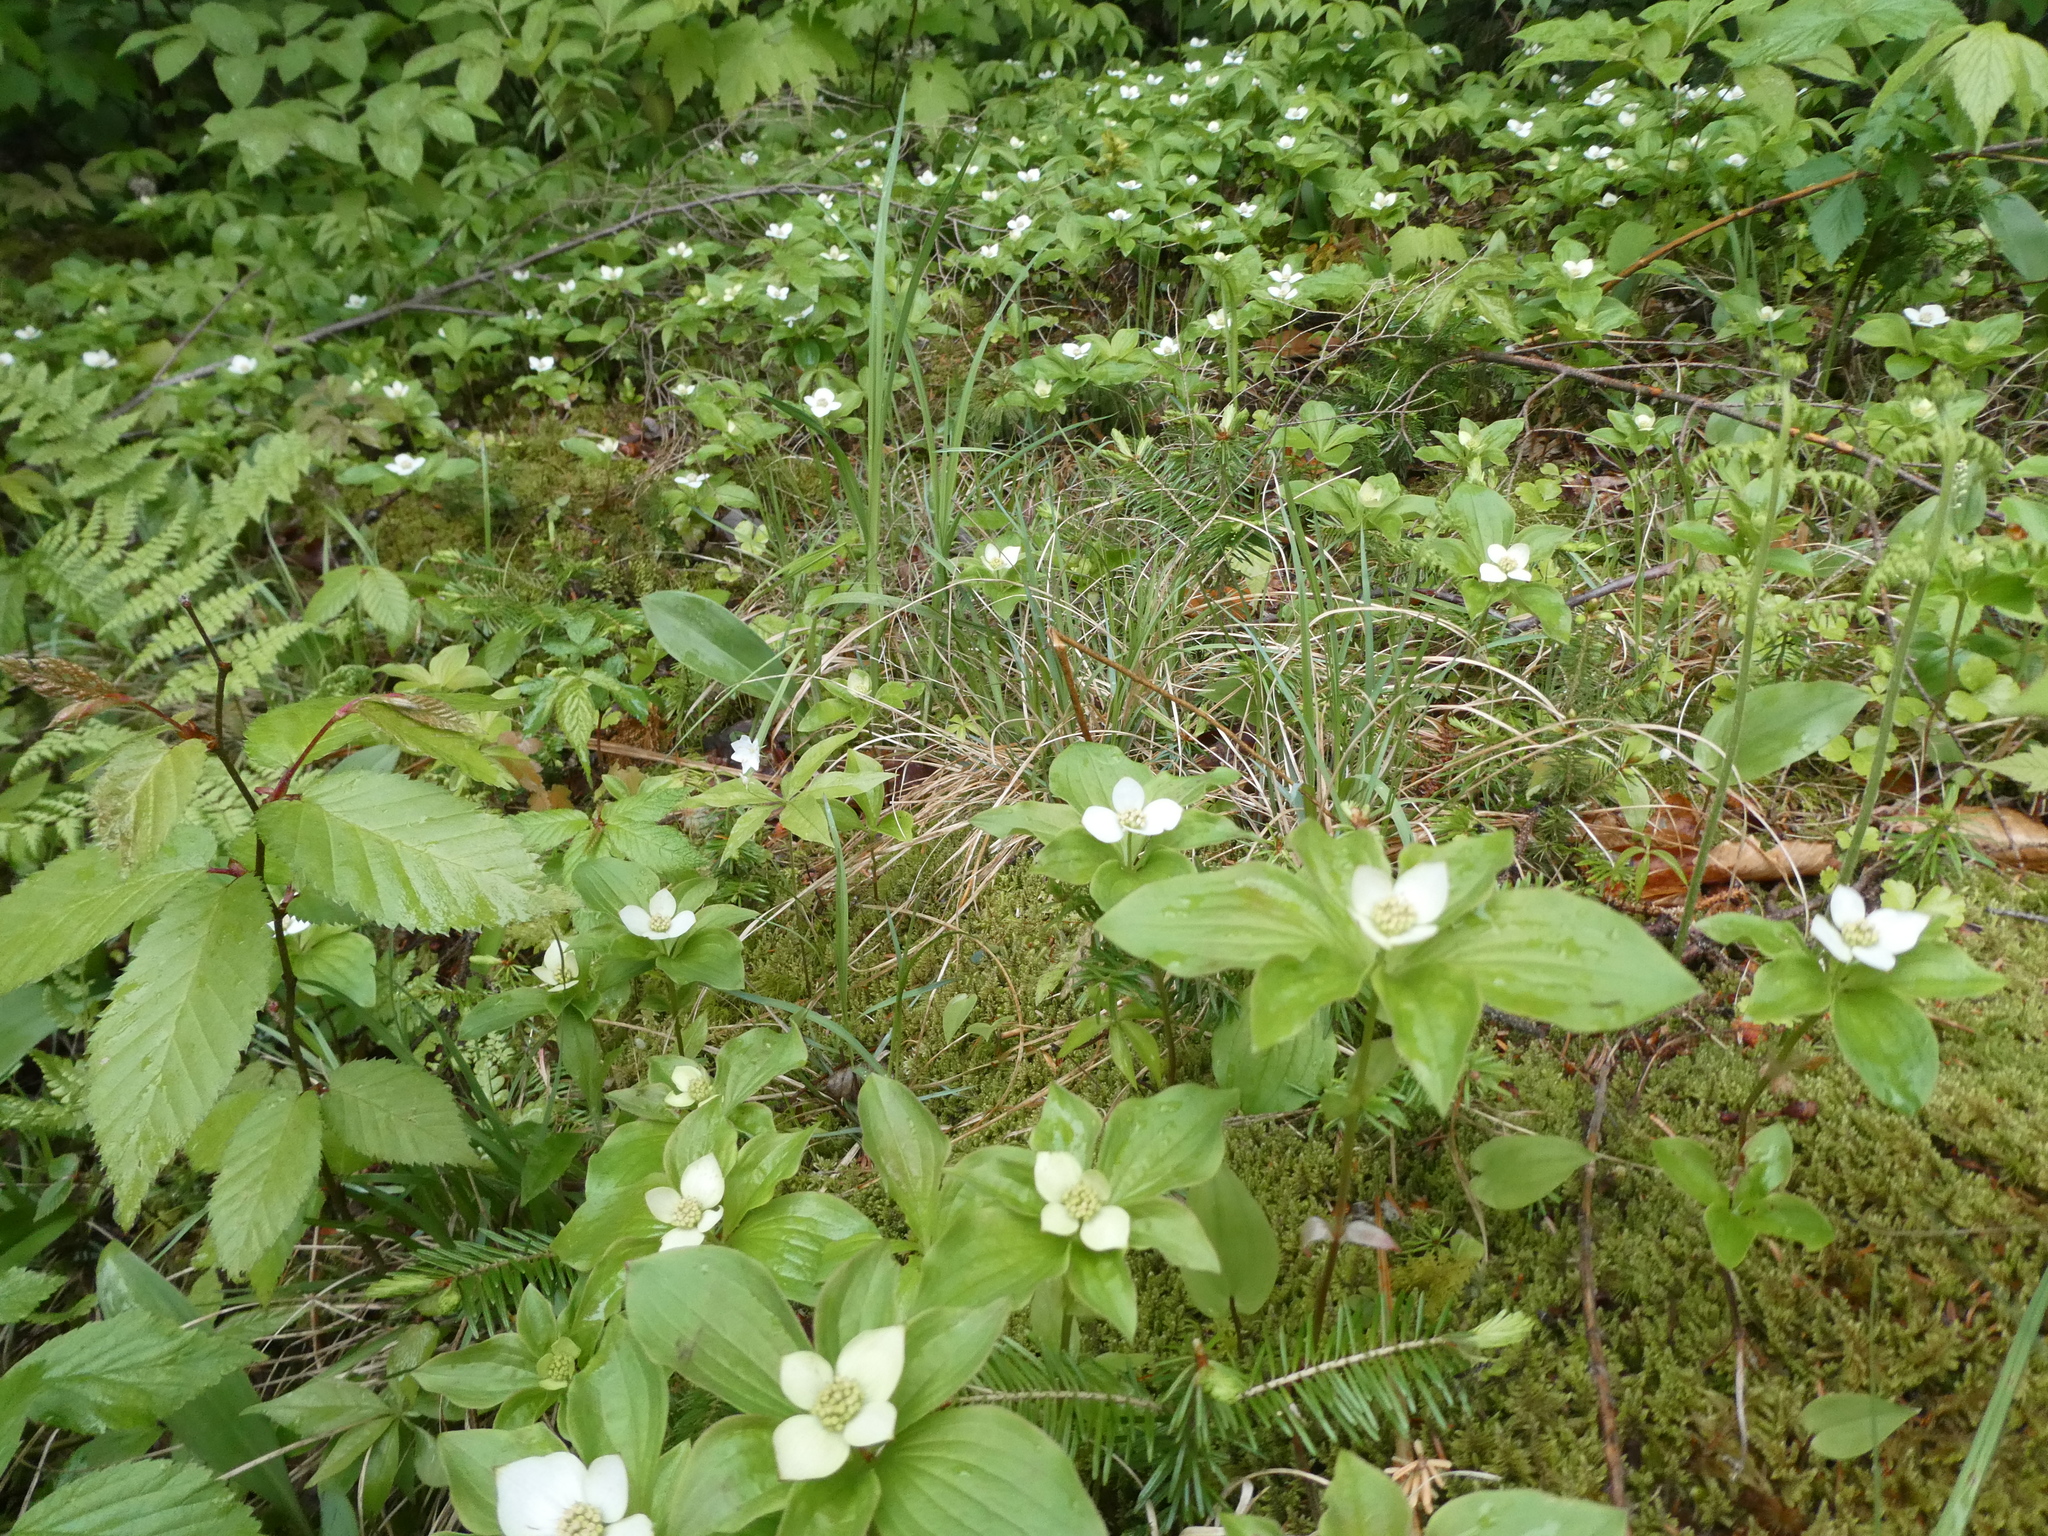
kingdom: Plantae
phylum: Tracheophyta
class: Magnoliopsida
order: Cornales
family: Cornaceae
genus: Cornus
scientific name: Cornus canadensis
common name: Creeping dogwood
